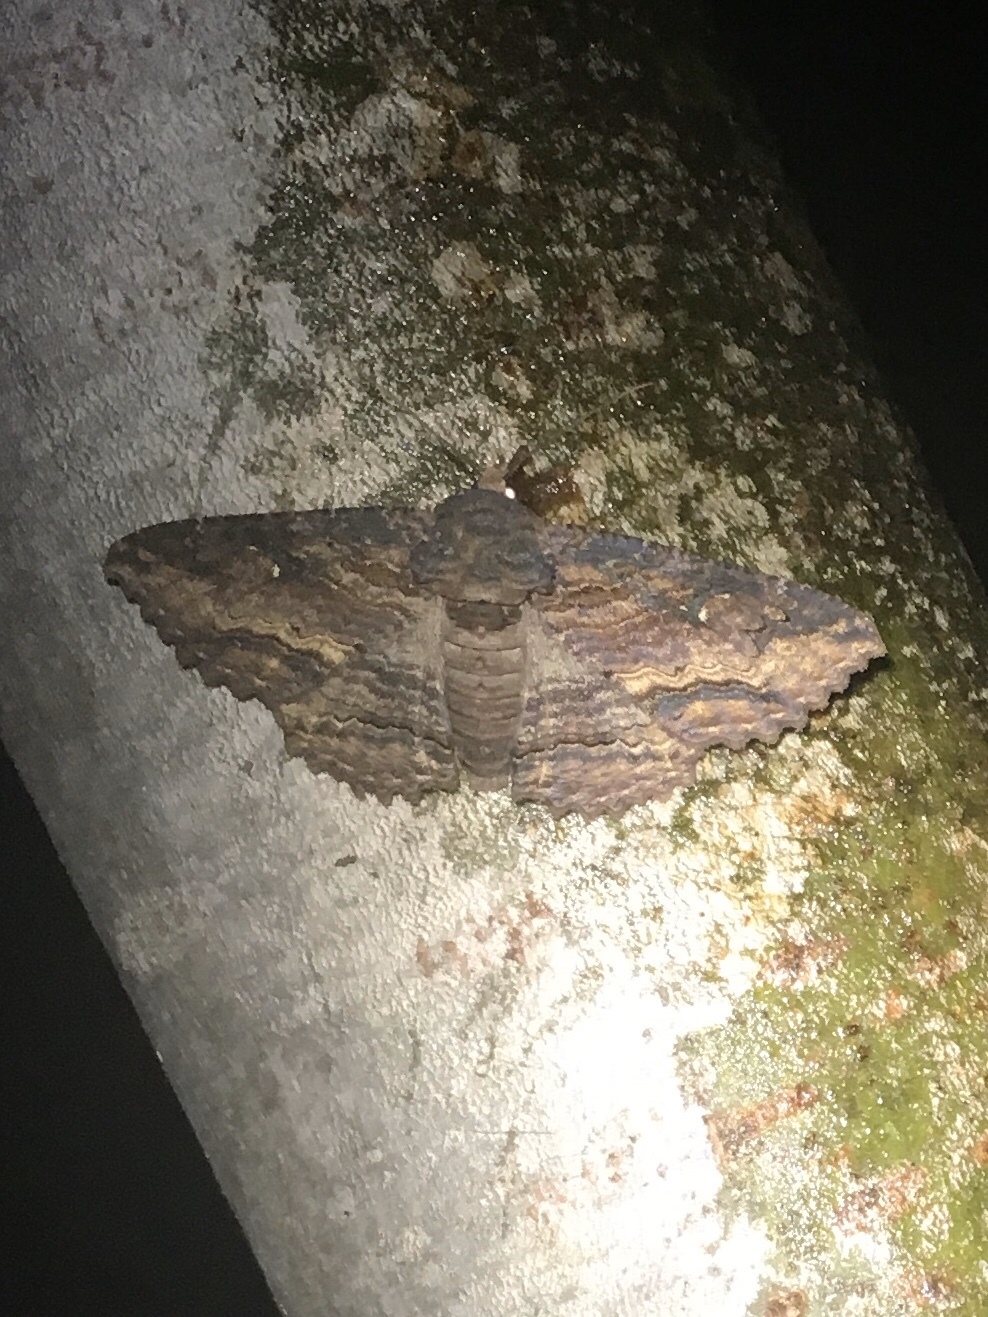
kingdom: Animalia
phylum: Arthropoda
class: Insecta
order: Lepidoptera
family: Erebidae
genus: Zale
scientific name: Zale lunata
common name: Lunate zale moth
